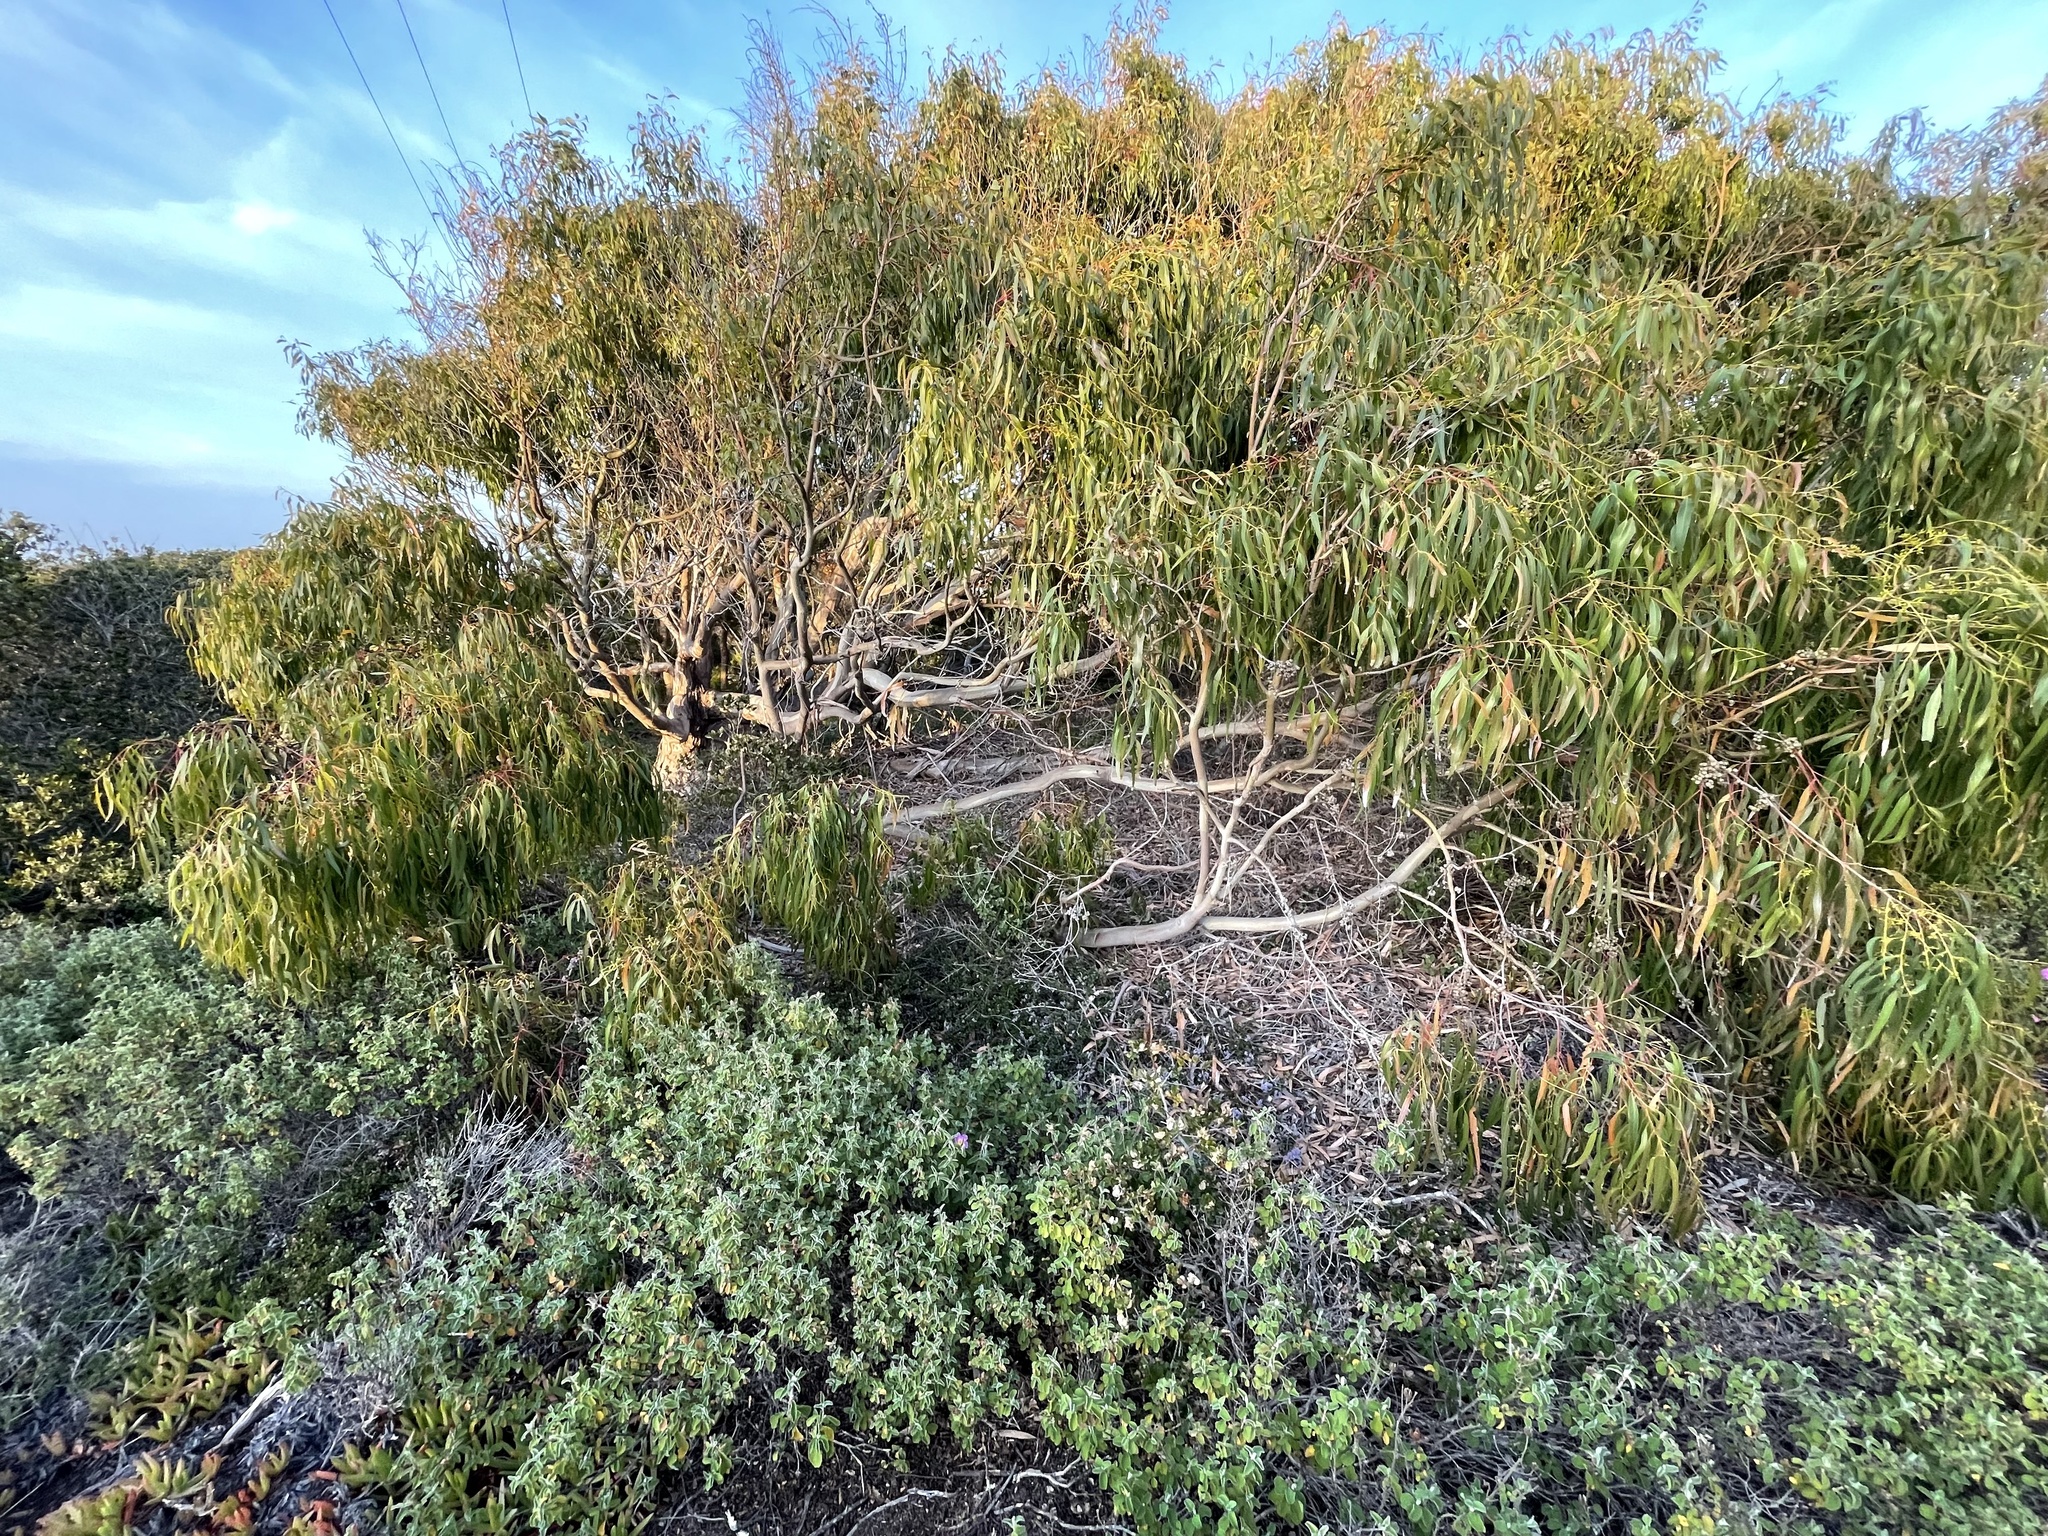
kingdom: Plantae
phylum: Tracheophyta
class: Magnoliopsida
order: Malvales
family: Cistaceae
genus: Cistus
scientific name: Cistus creticus
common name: Cretan rockrose
